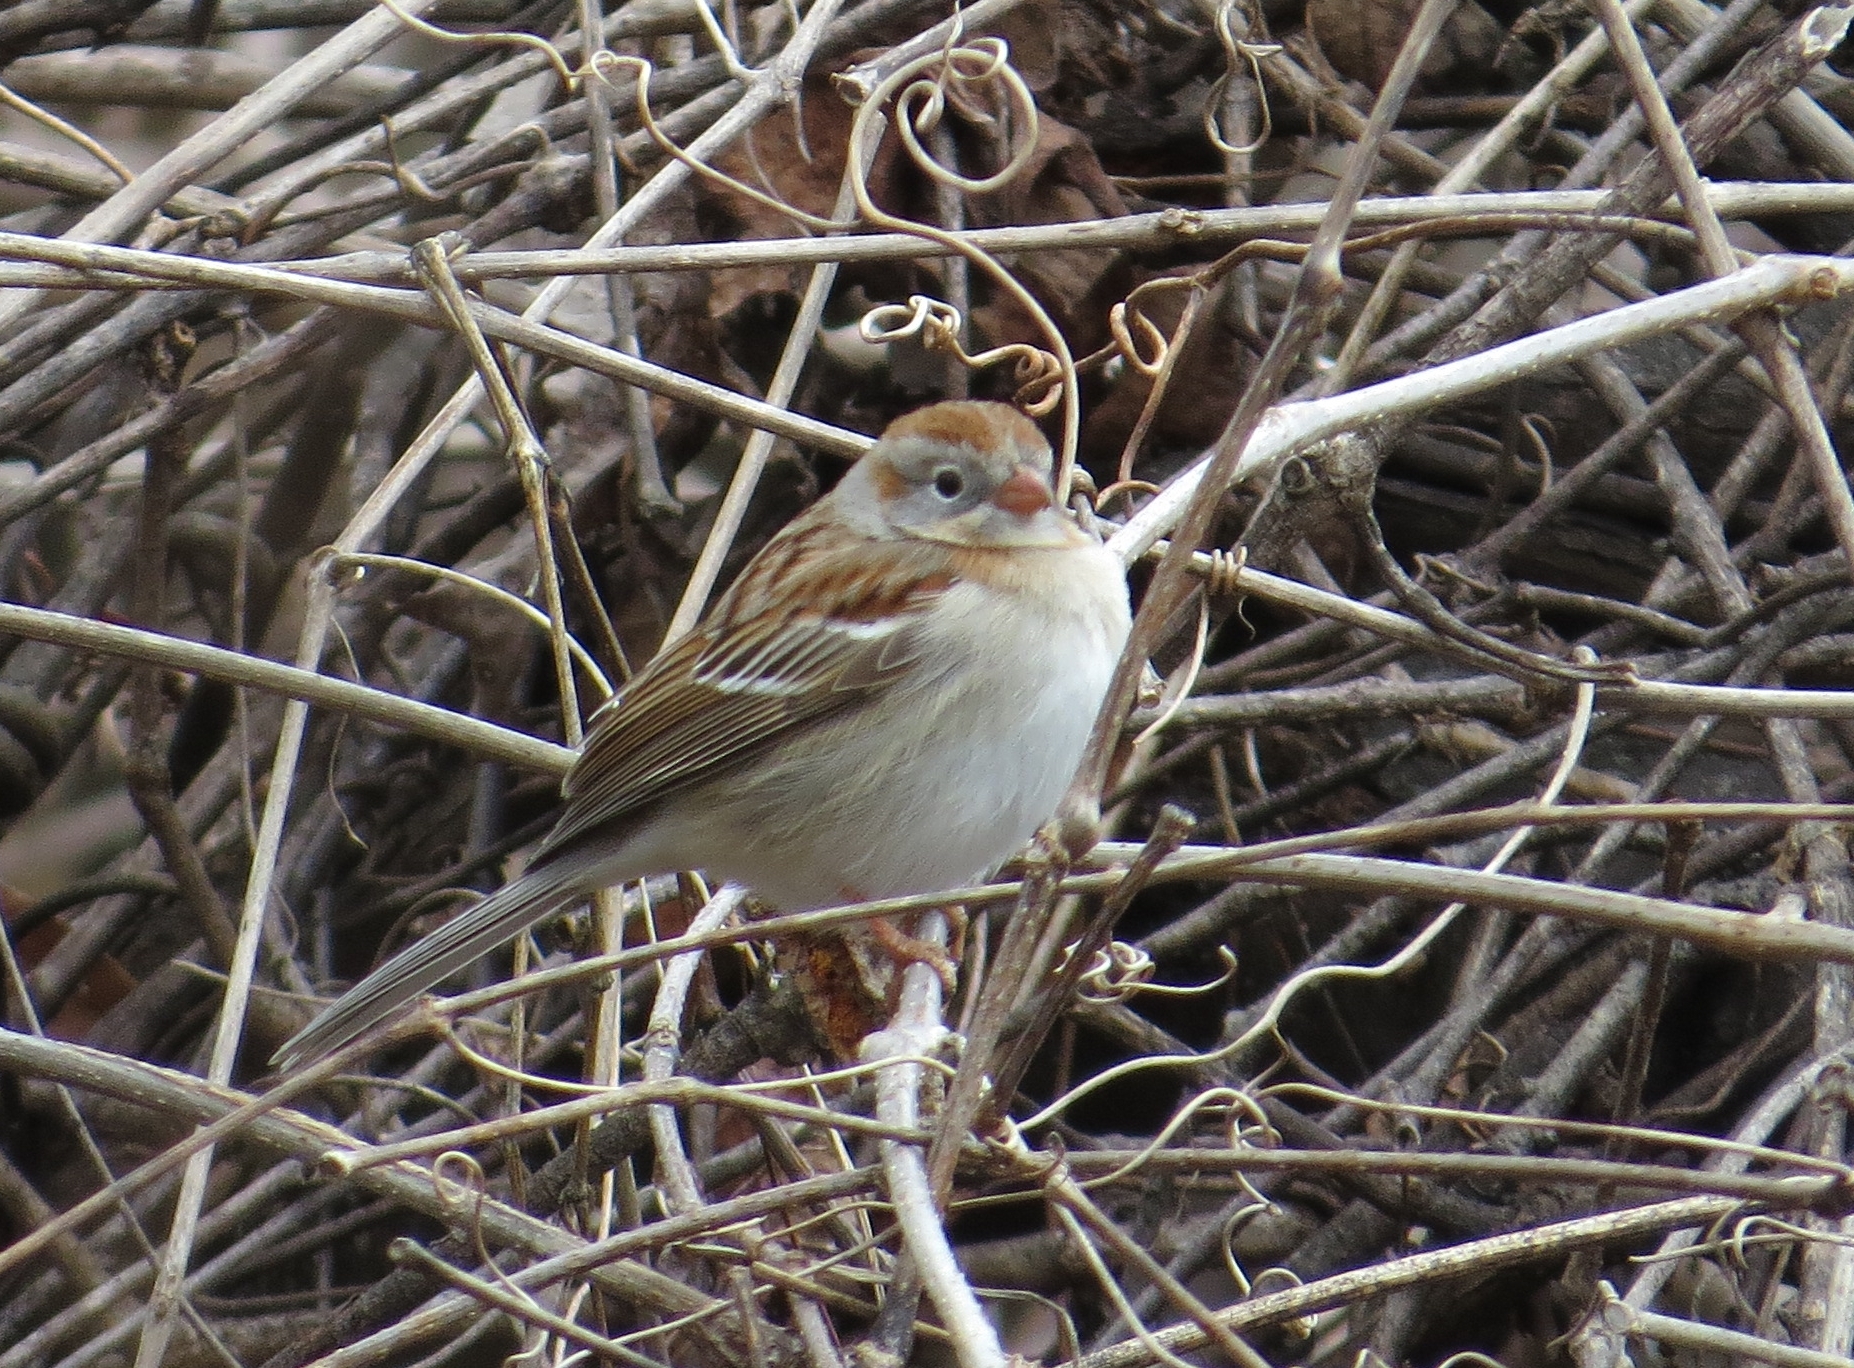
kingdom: Animalia
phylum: Chordata
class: Aves
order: Passeriformes
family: Passerellidae
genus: Spizella
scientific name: Spizella pusilla
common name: Field sparrow
